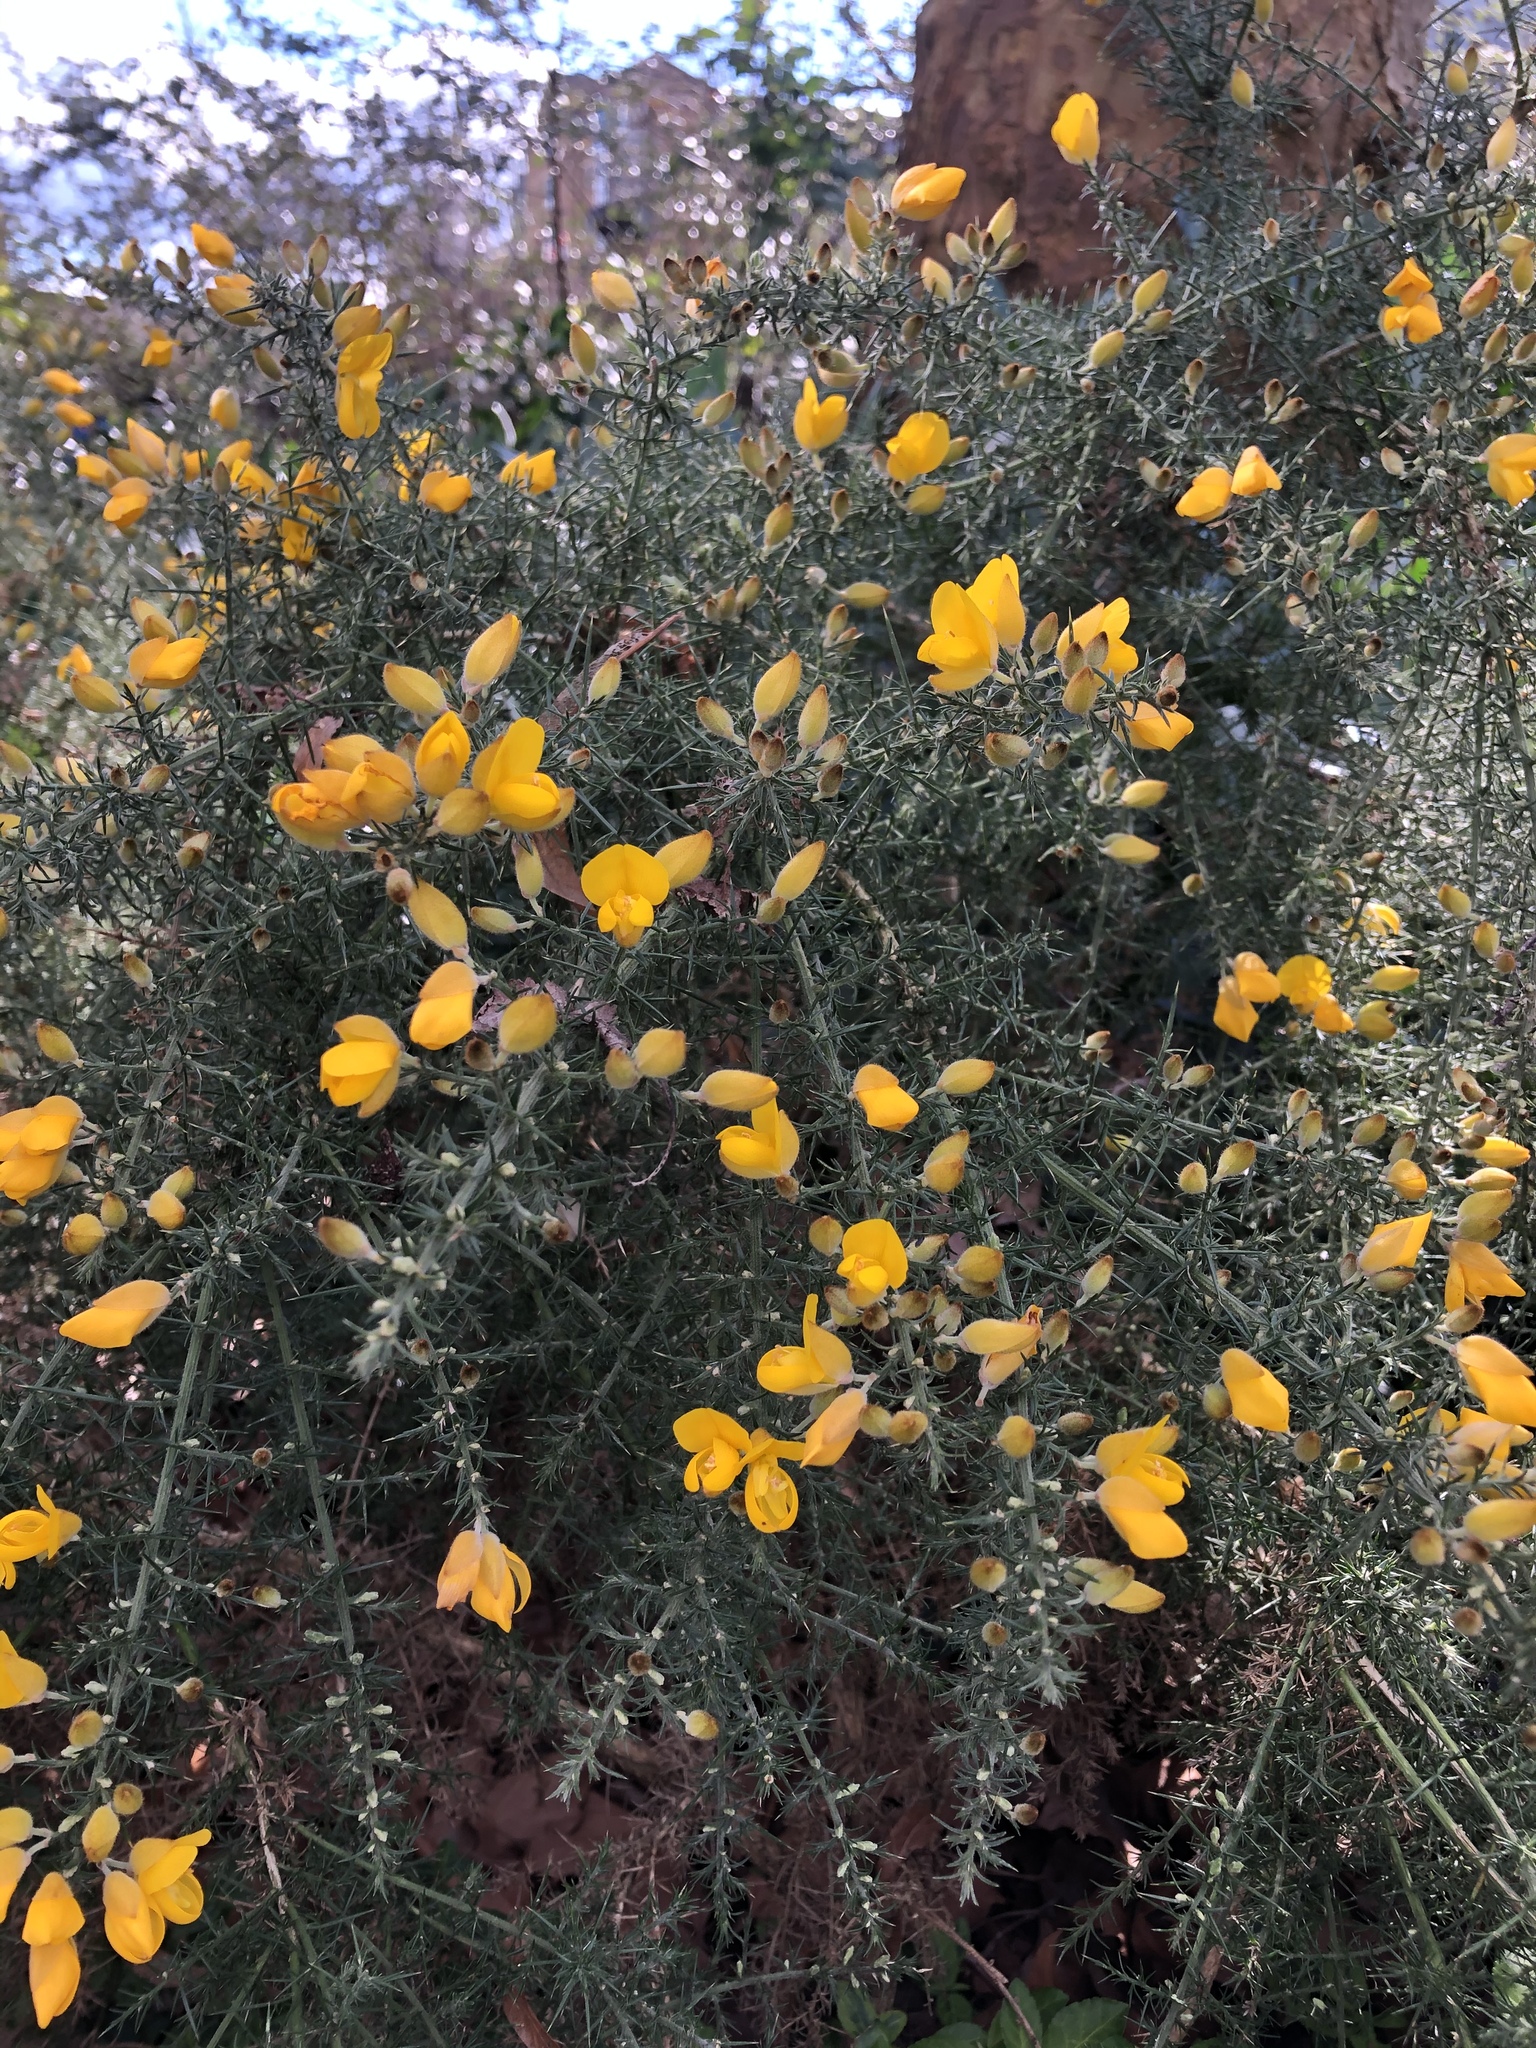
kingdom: Plantae
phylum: Tracheophyta
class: Magnoliopsida
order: Fabales
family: Fabaceae
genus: Ulex
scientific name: Ulex europaeus
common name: Common gorse
